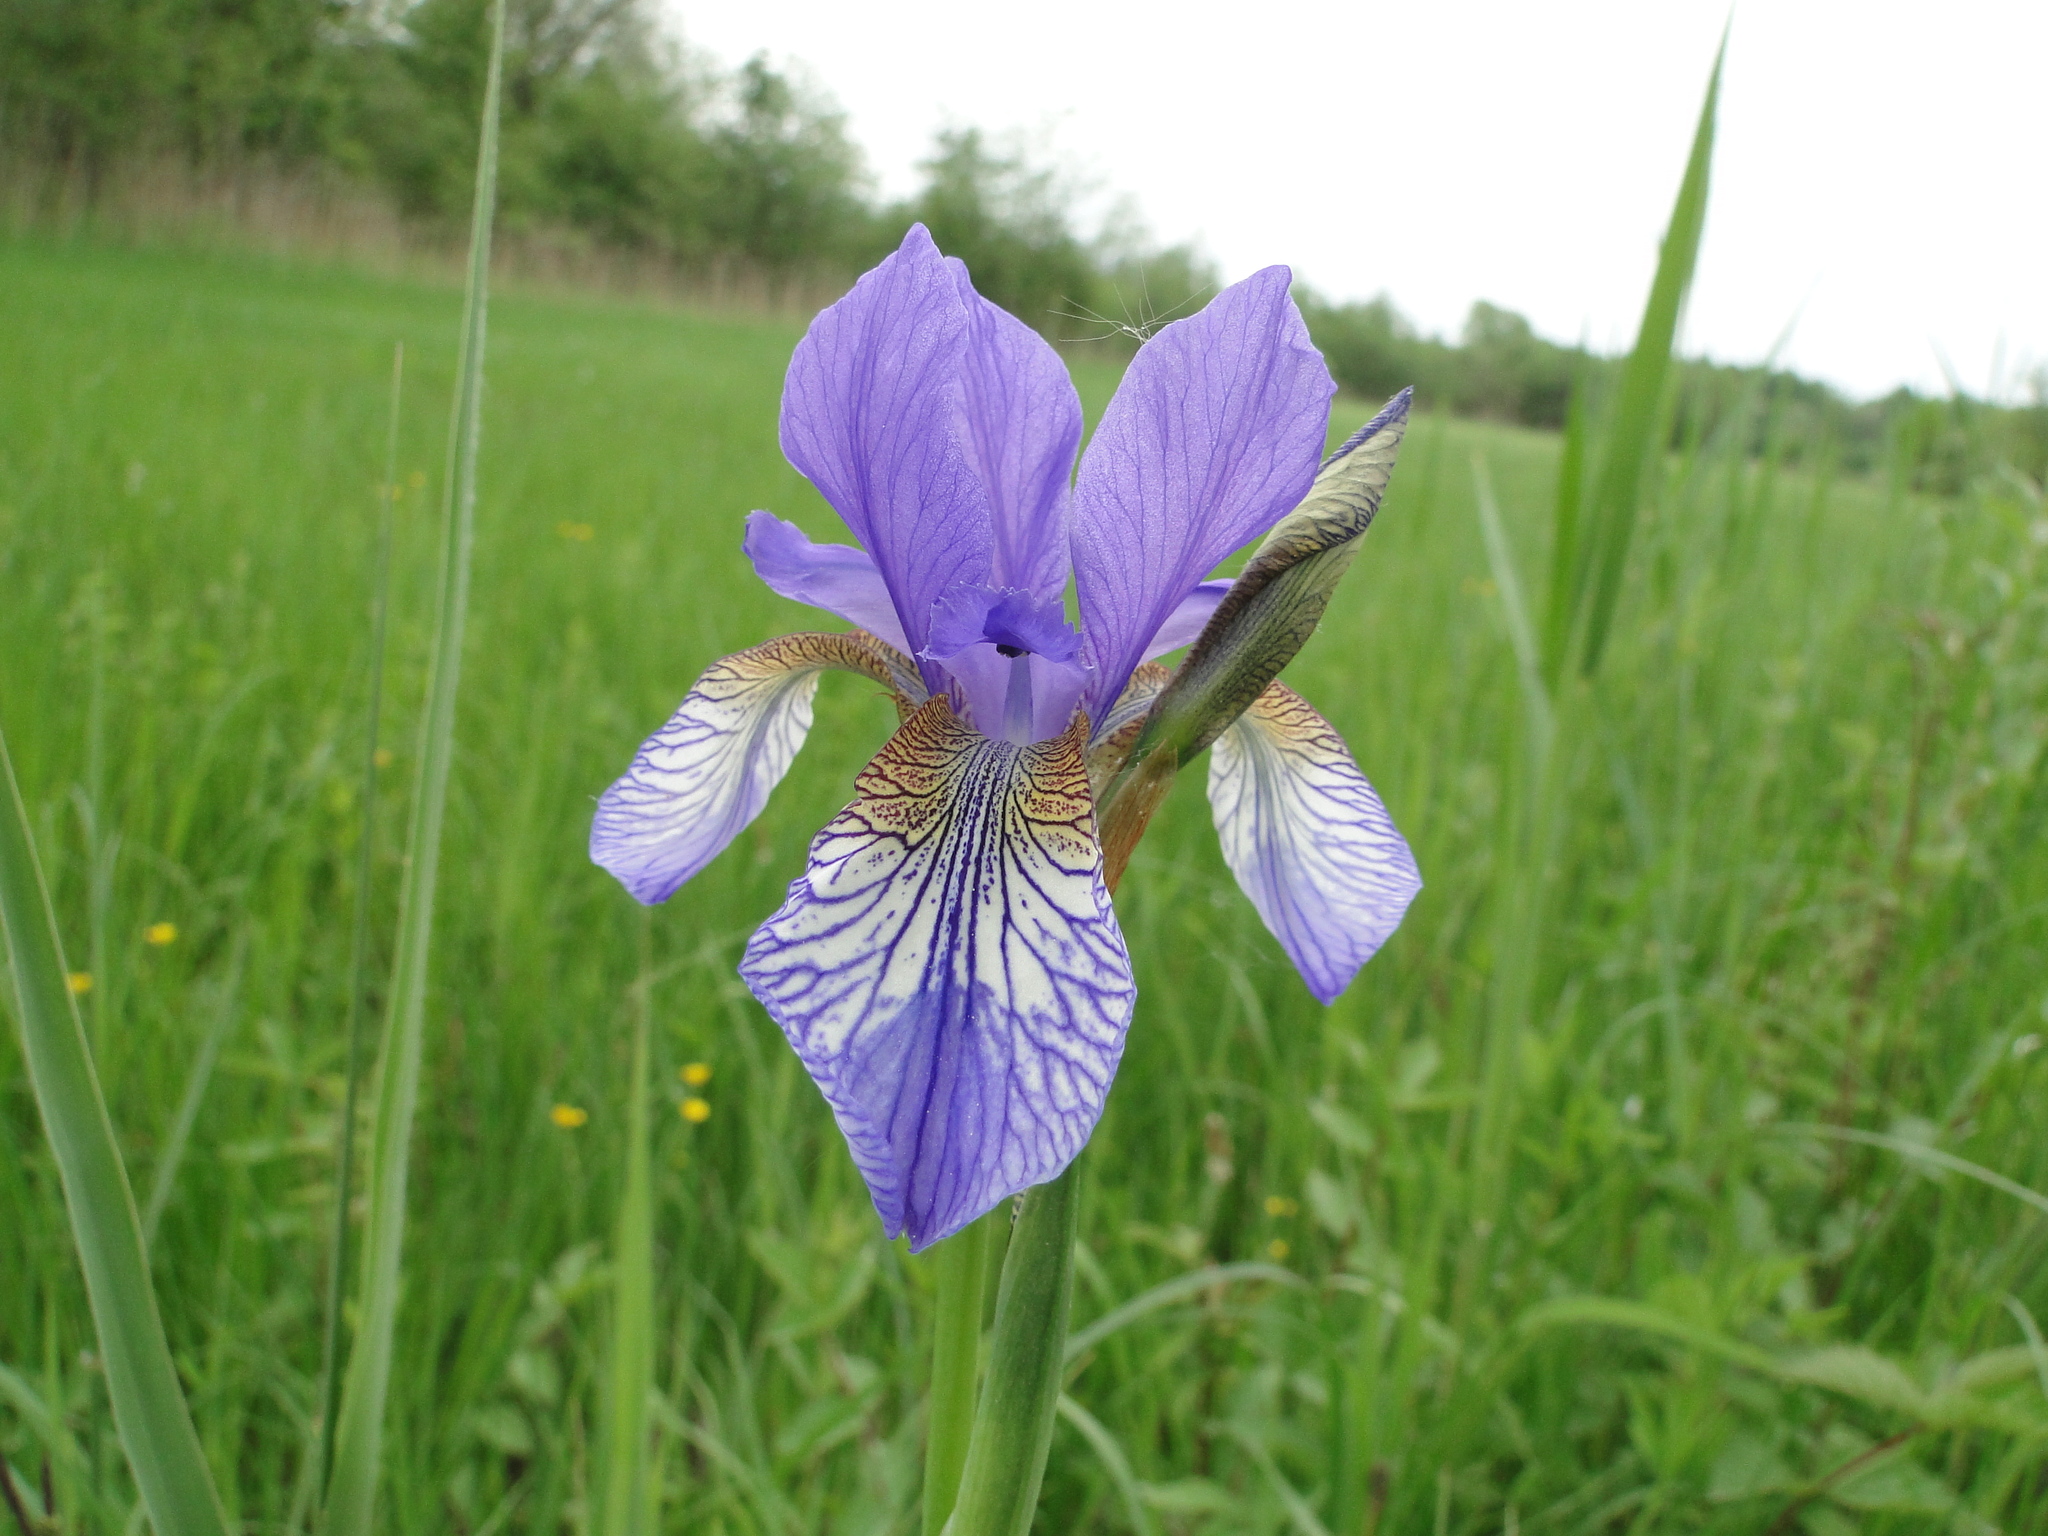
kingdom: Plantae
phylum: Tracheophyta
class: Liliopsida
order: Asparagales
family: Iridaceae
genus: Iris
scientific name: Iris sibirica
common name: Siberian iris
